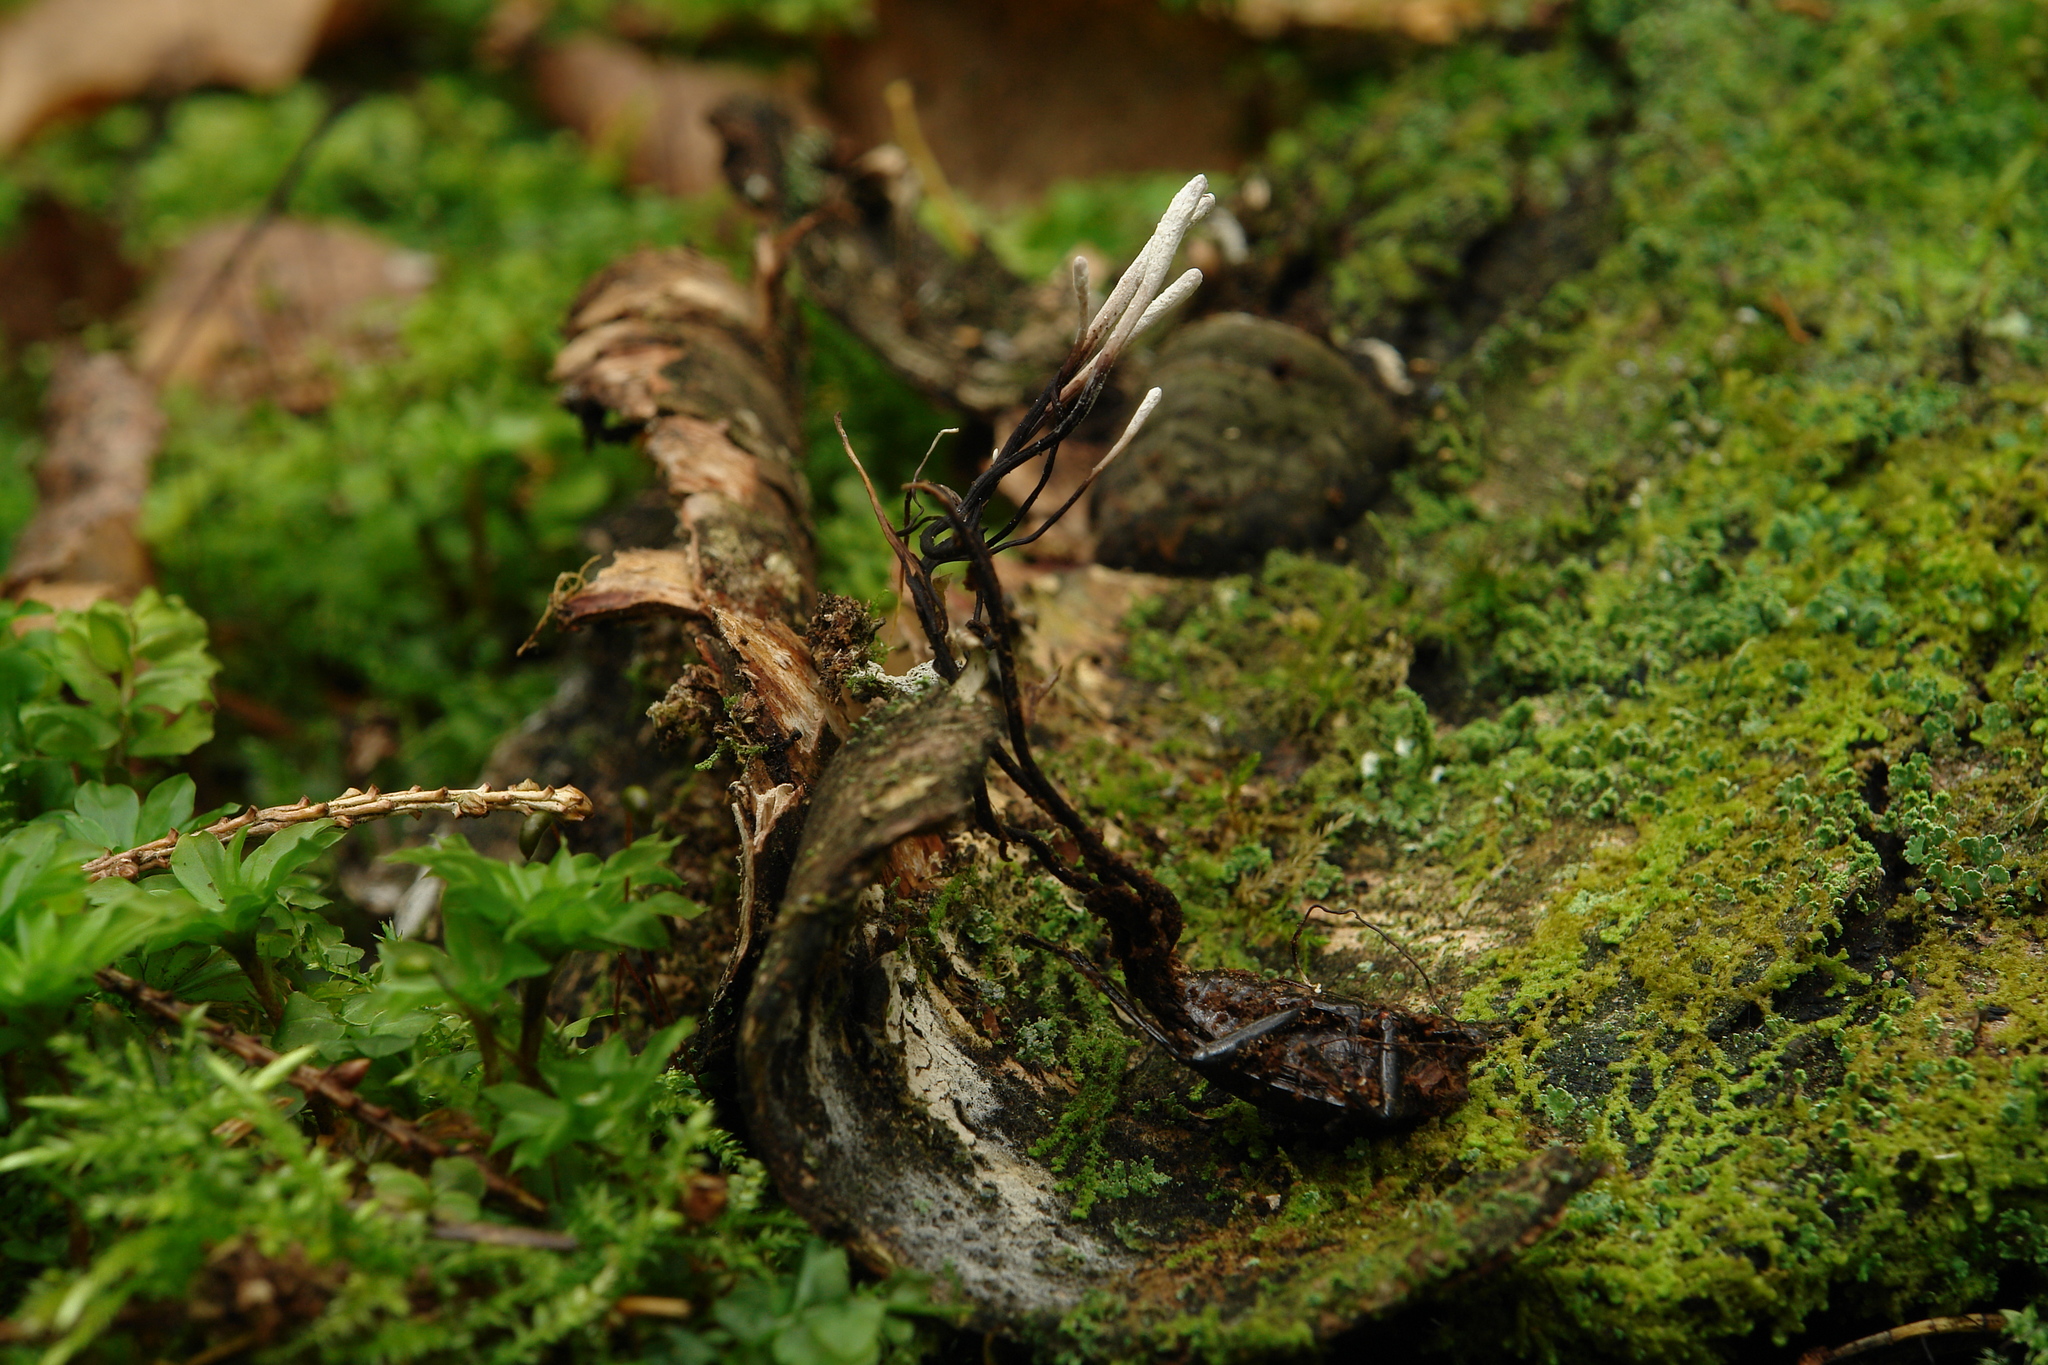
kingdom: Fungi
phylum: Ascomycota
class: Sordariomycetes
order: Hypocreales
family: Ophiocordycipitaceae
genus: Ophiocordyceps
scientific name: Ophiocordyceps entomorrhiza
